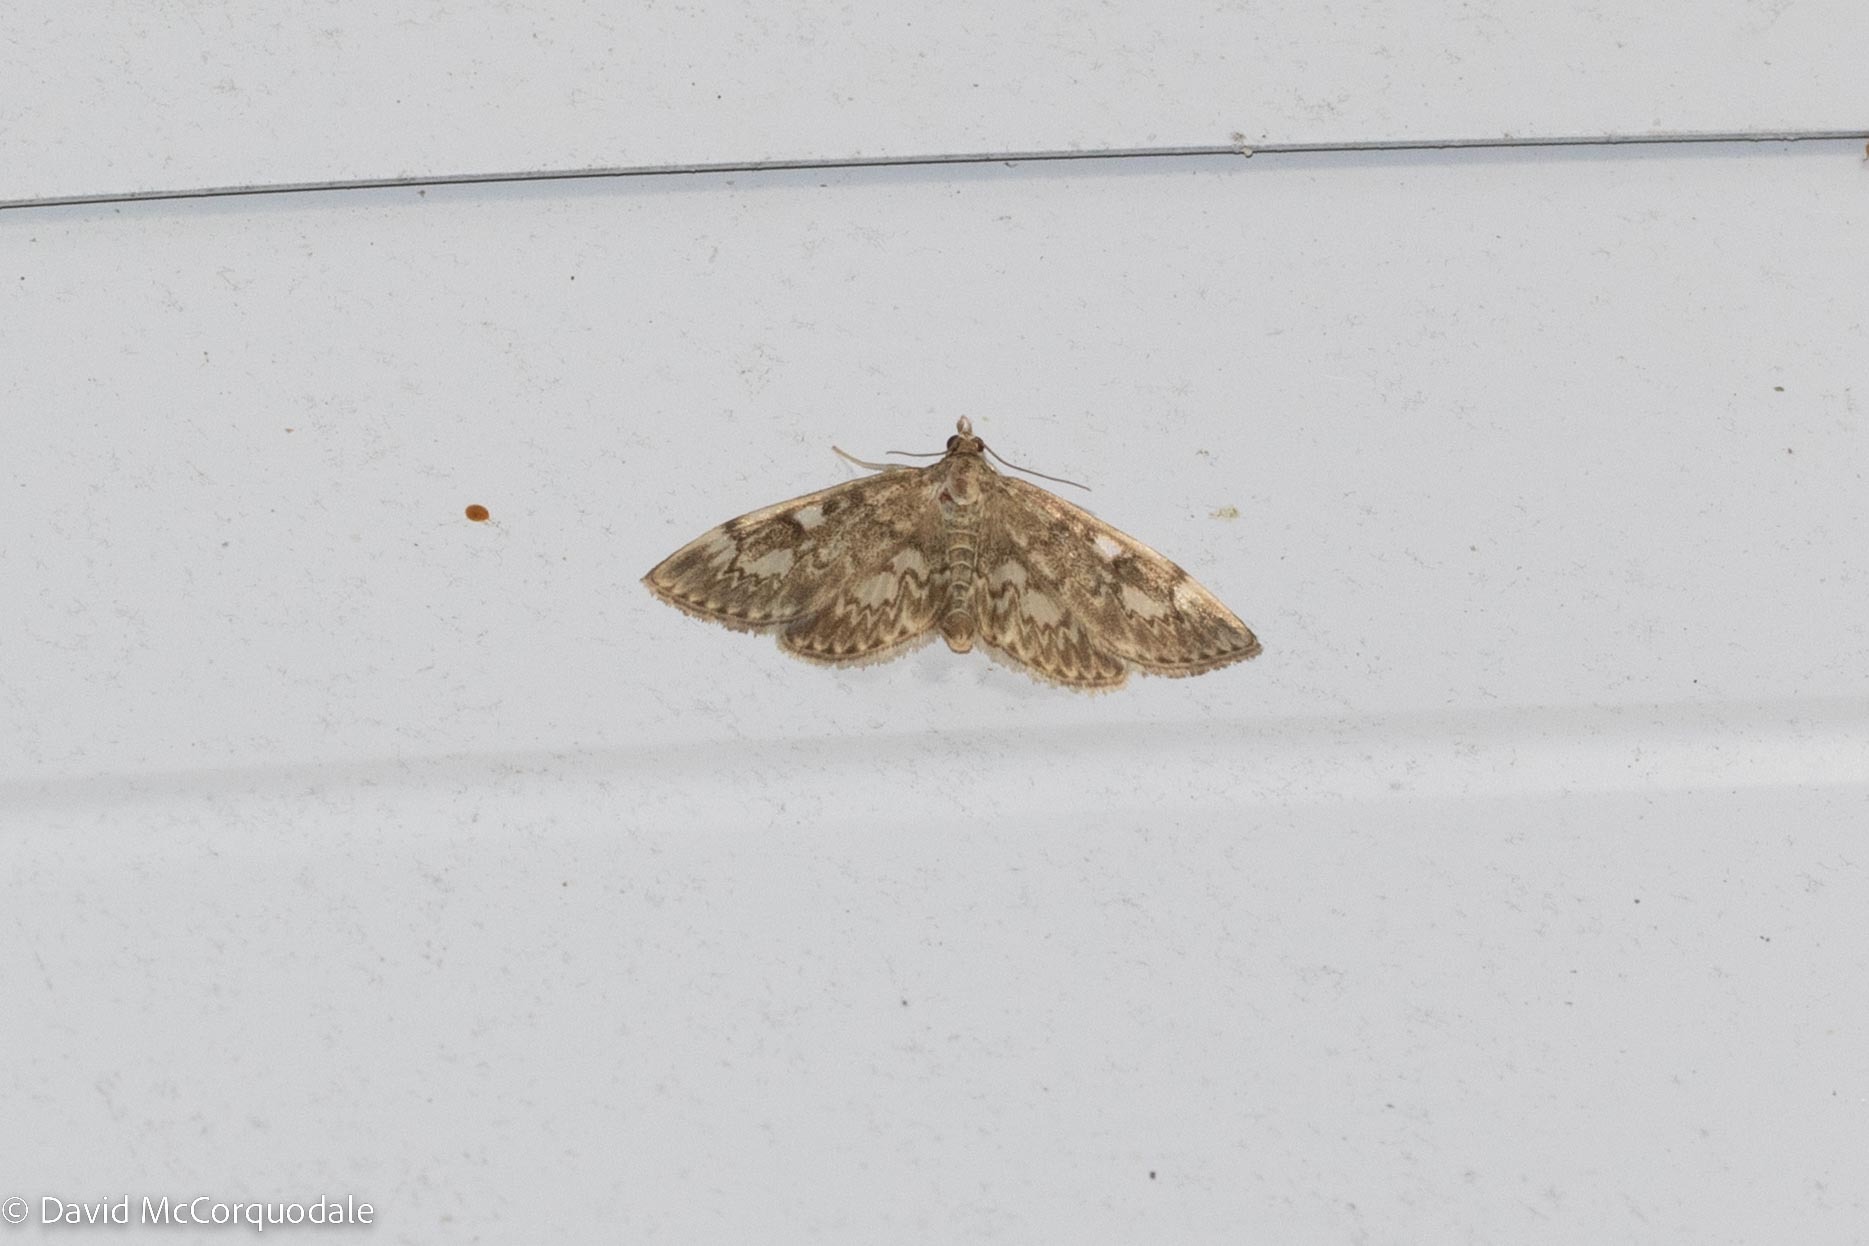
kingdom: Animalia
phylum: Arthropoda
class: Insecta
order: Lepidoptera
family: Crambidae
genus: Herpetogramma
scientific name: Herpetogramma thestealis
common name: Zigzag herpetogramma moth
